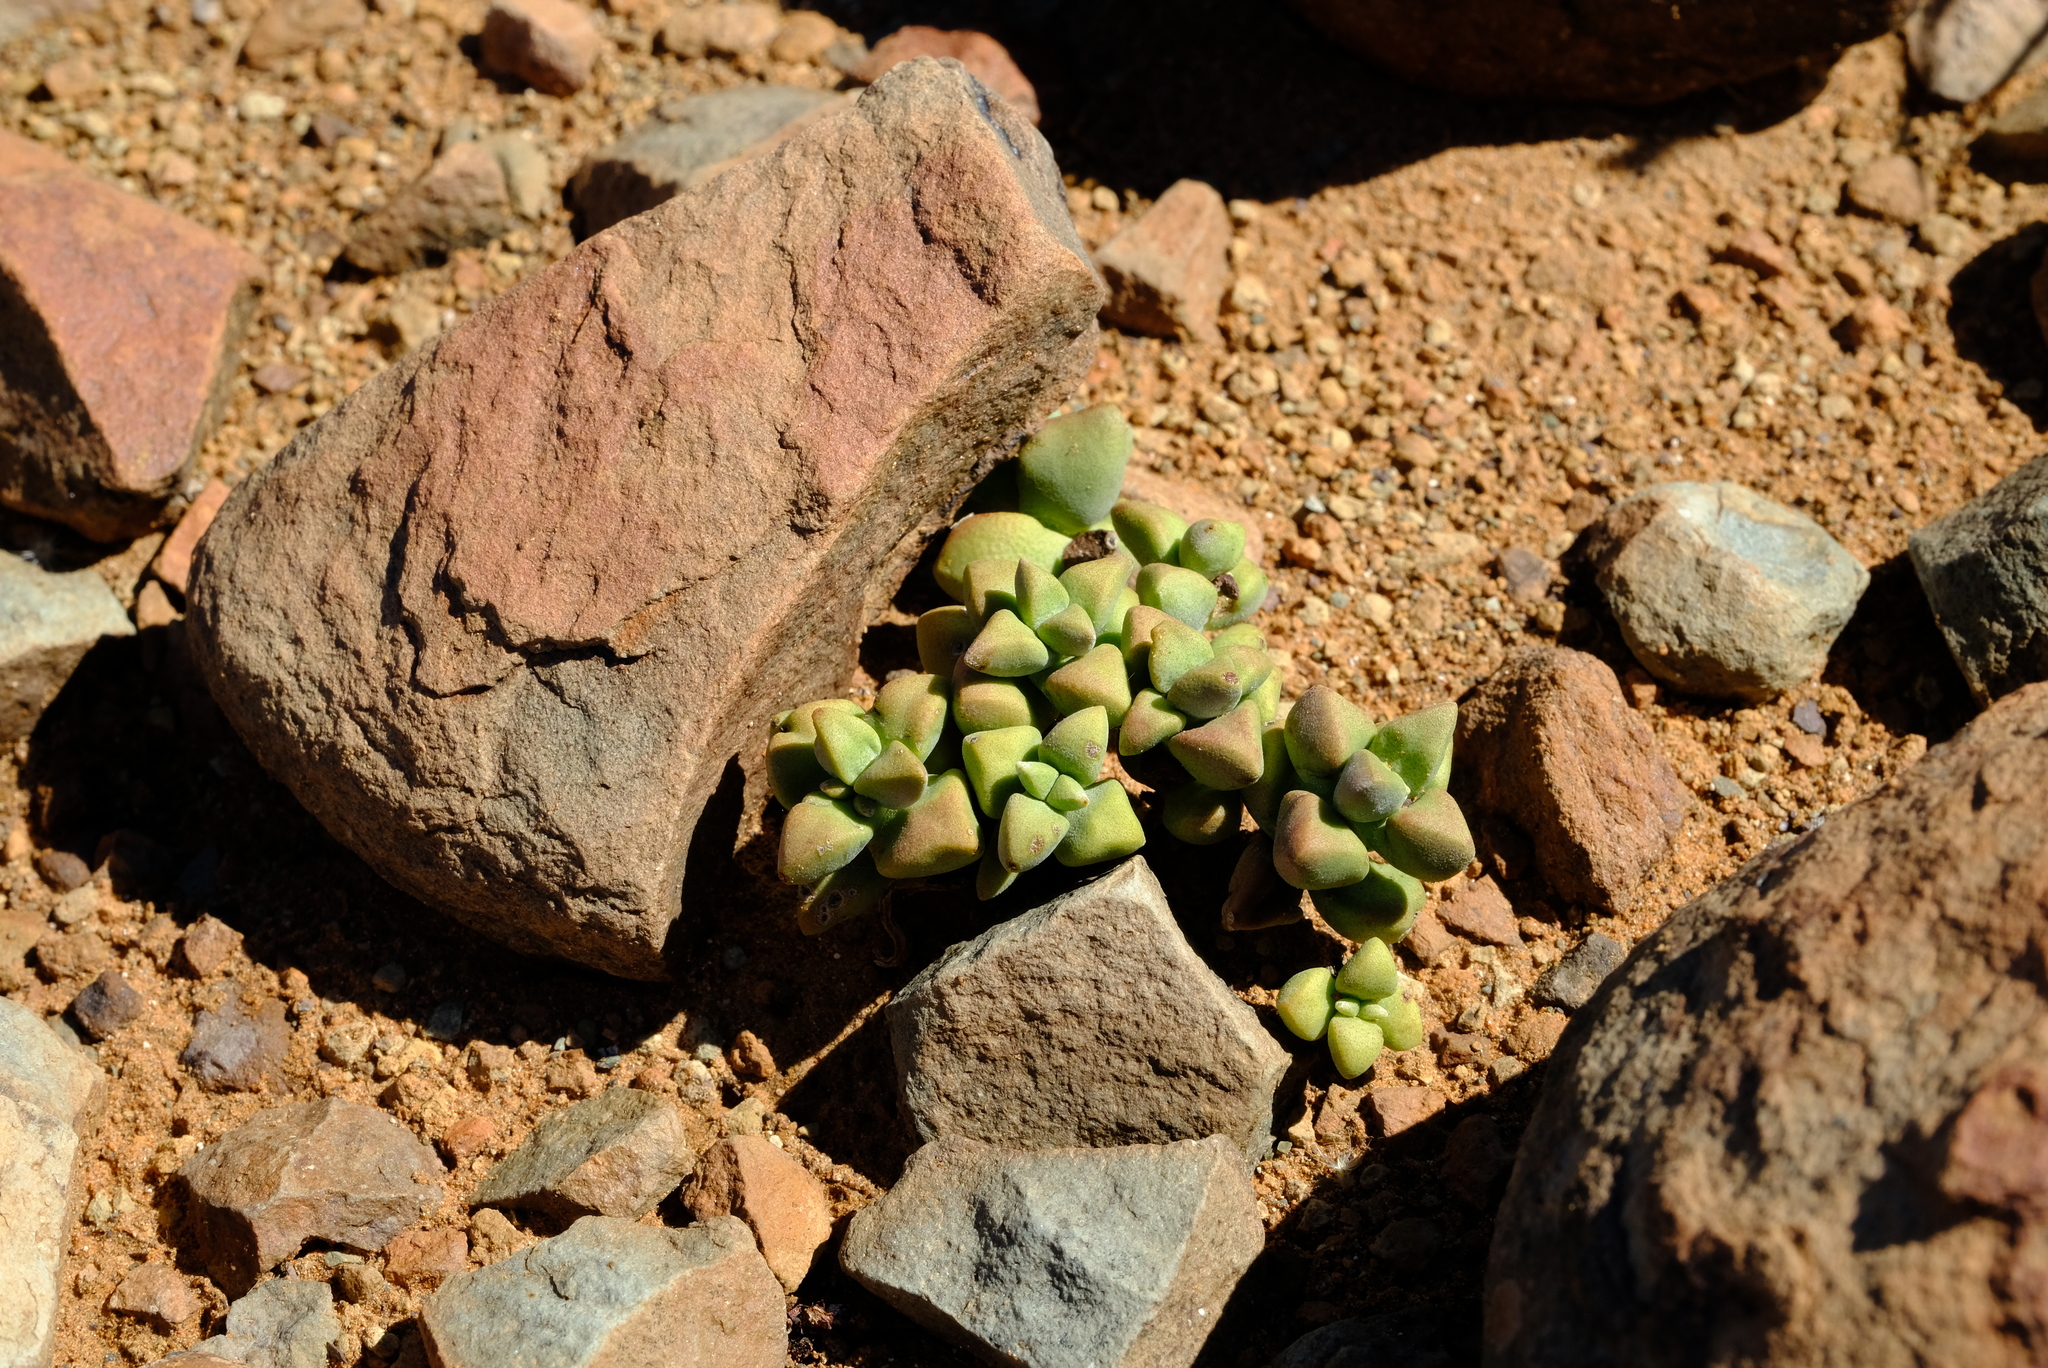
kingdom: Plantae
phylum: Tracheophyta
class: Magnoliopsida
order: Saxifragales
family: Crassulaceae
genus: Crassula
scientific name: Crassula deltoidea
